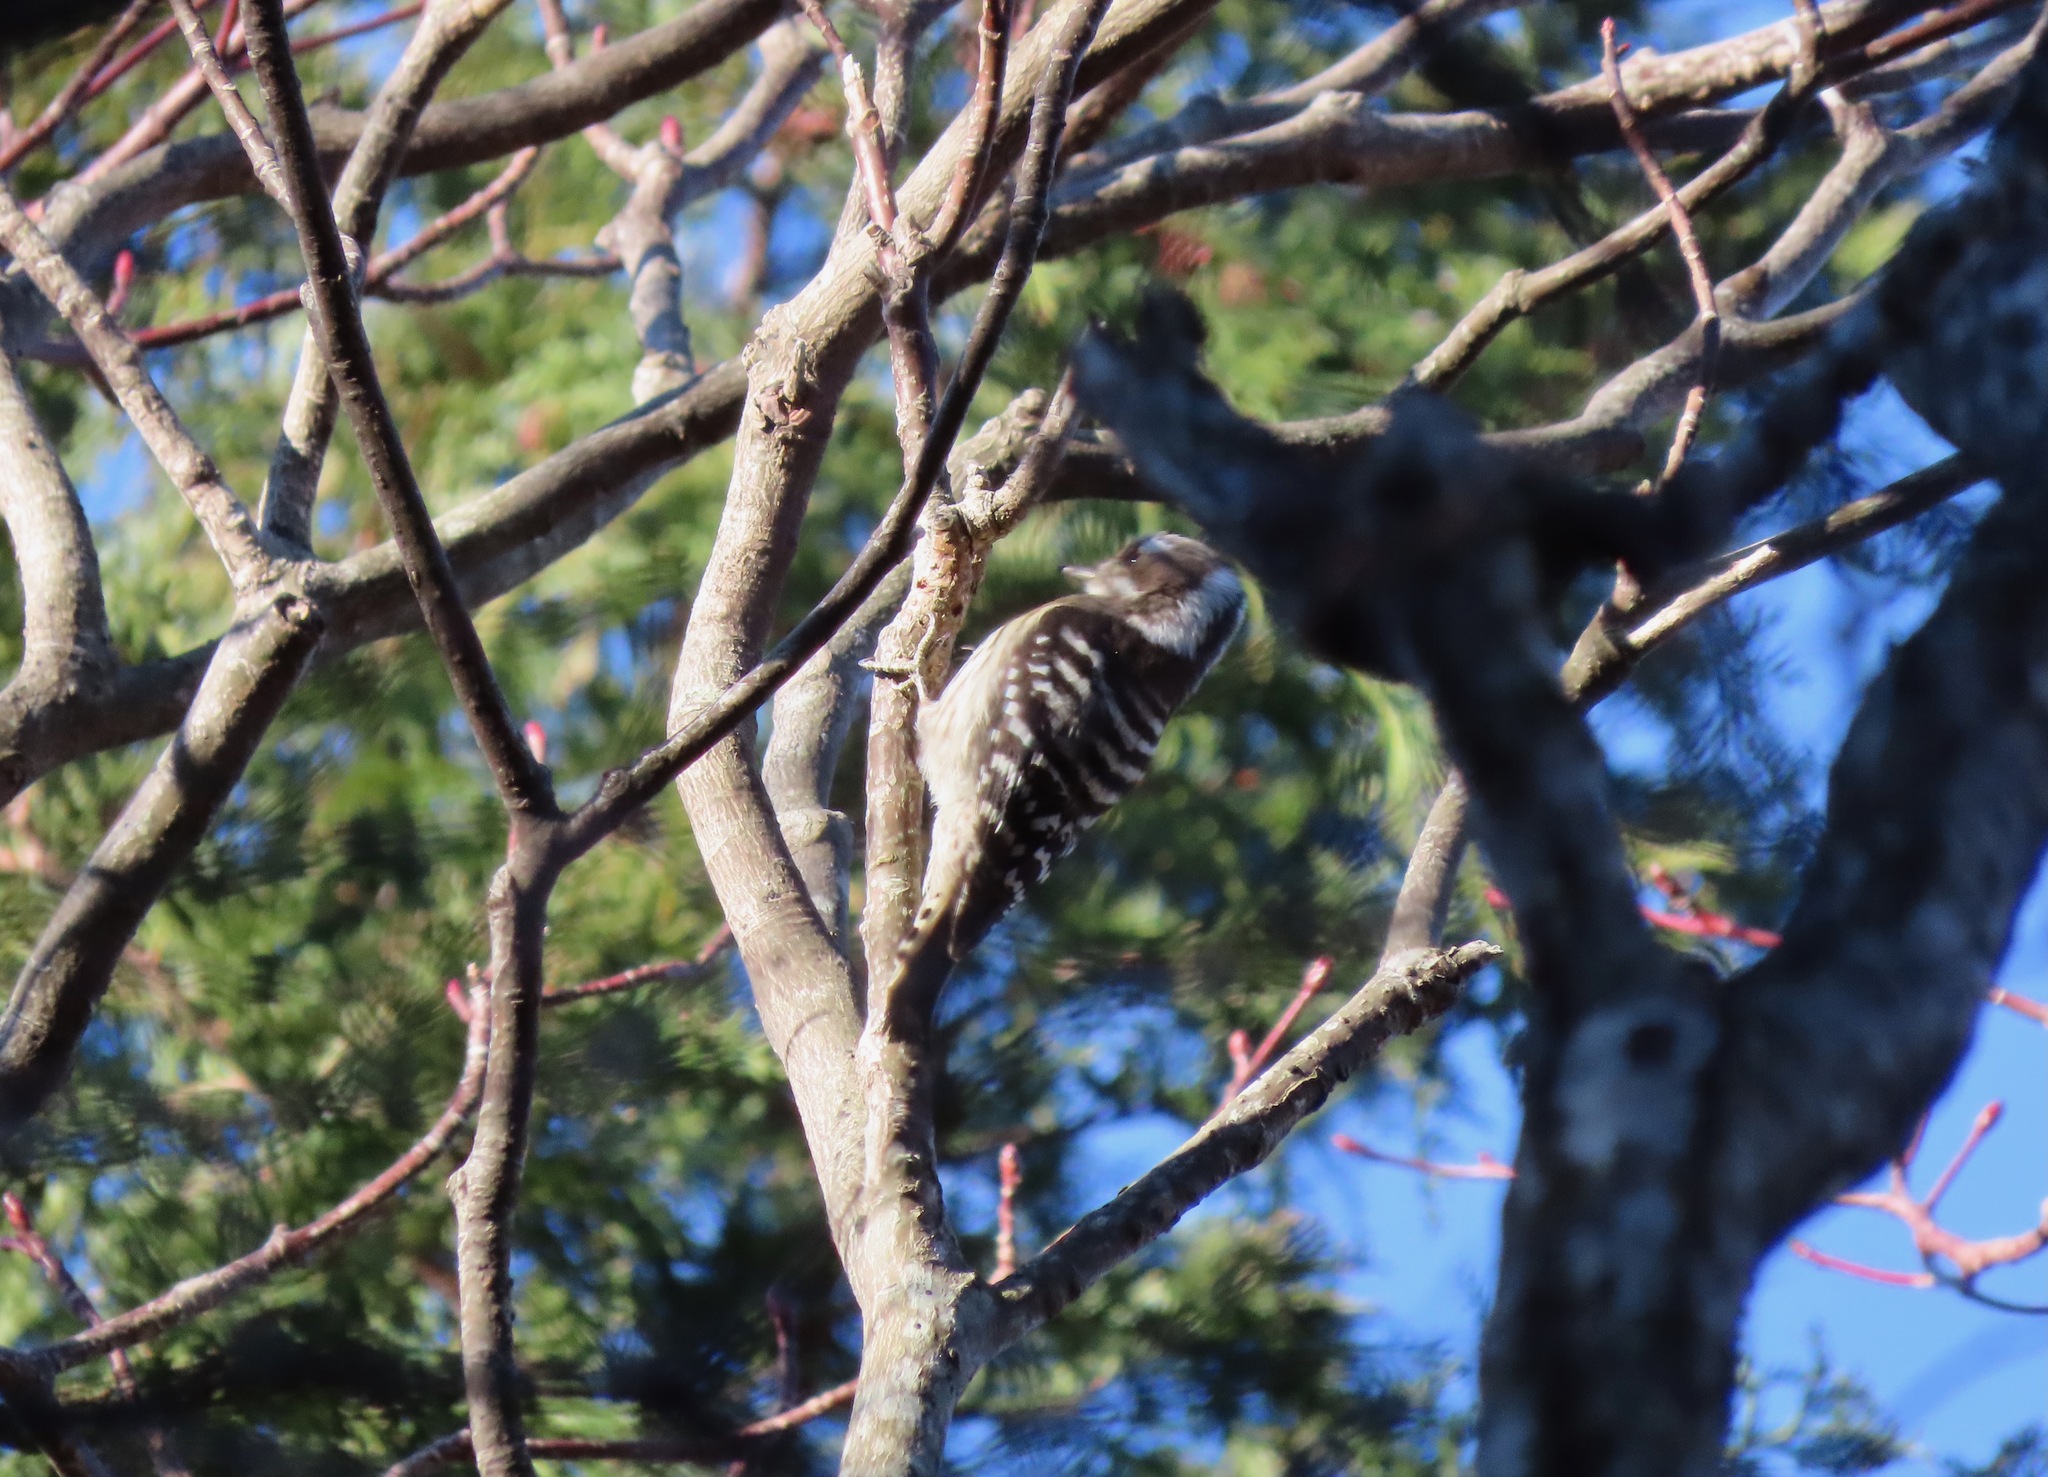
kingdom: Animalia
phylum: Chordata
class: Aves
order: Piciformes
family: Picidae
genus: Yungipicus
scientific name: Yungipicus kizuki
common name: Japanese pygmy woodpecker
